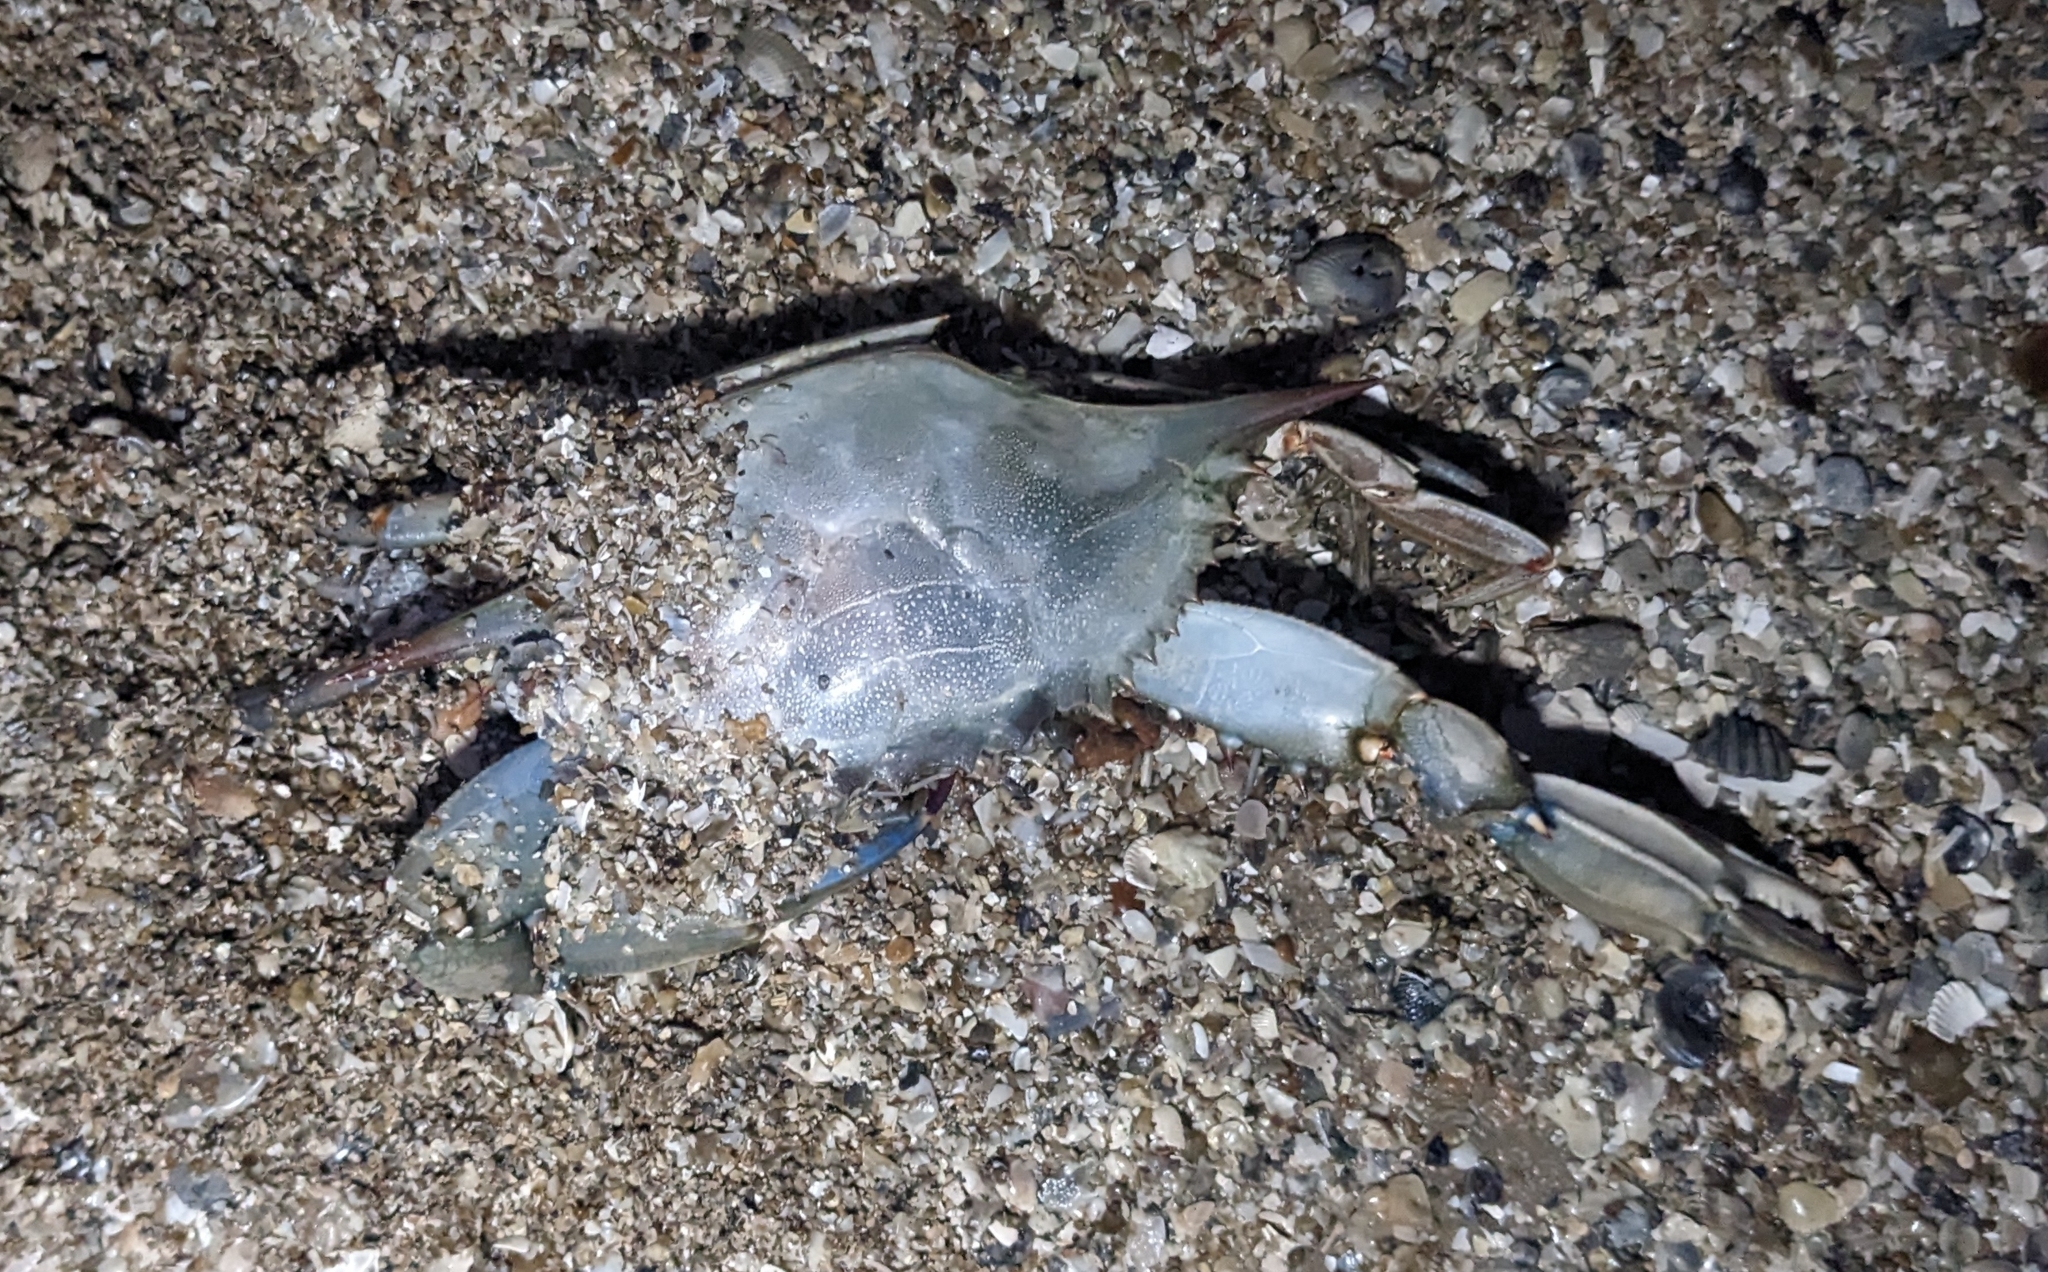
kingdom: Animalia
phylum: Arthropoda
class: Malacostraca
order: Decapoda
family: Portunidae
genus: Callinectes
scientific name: Callinectes sapidus
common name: Blue crab
